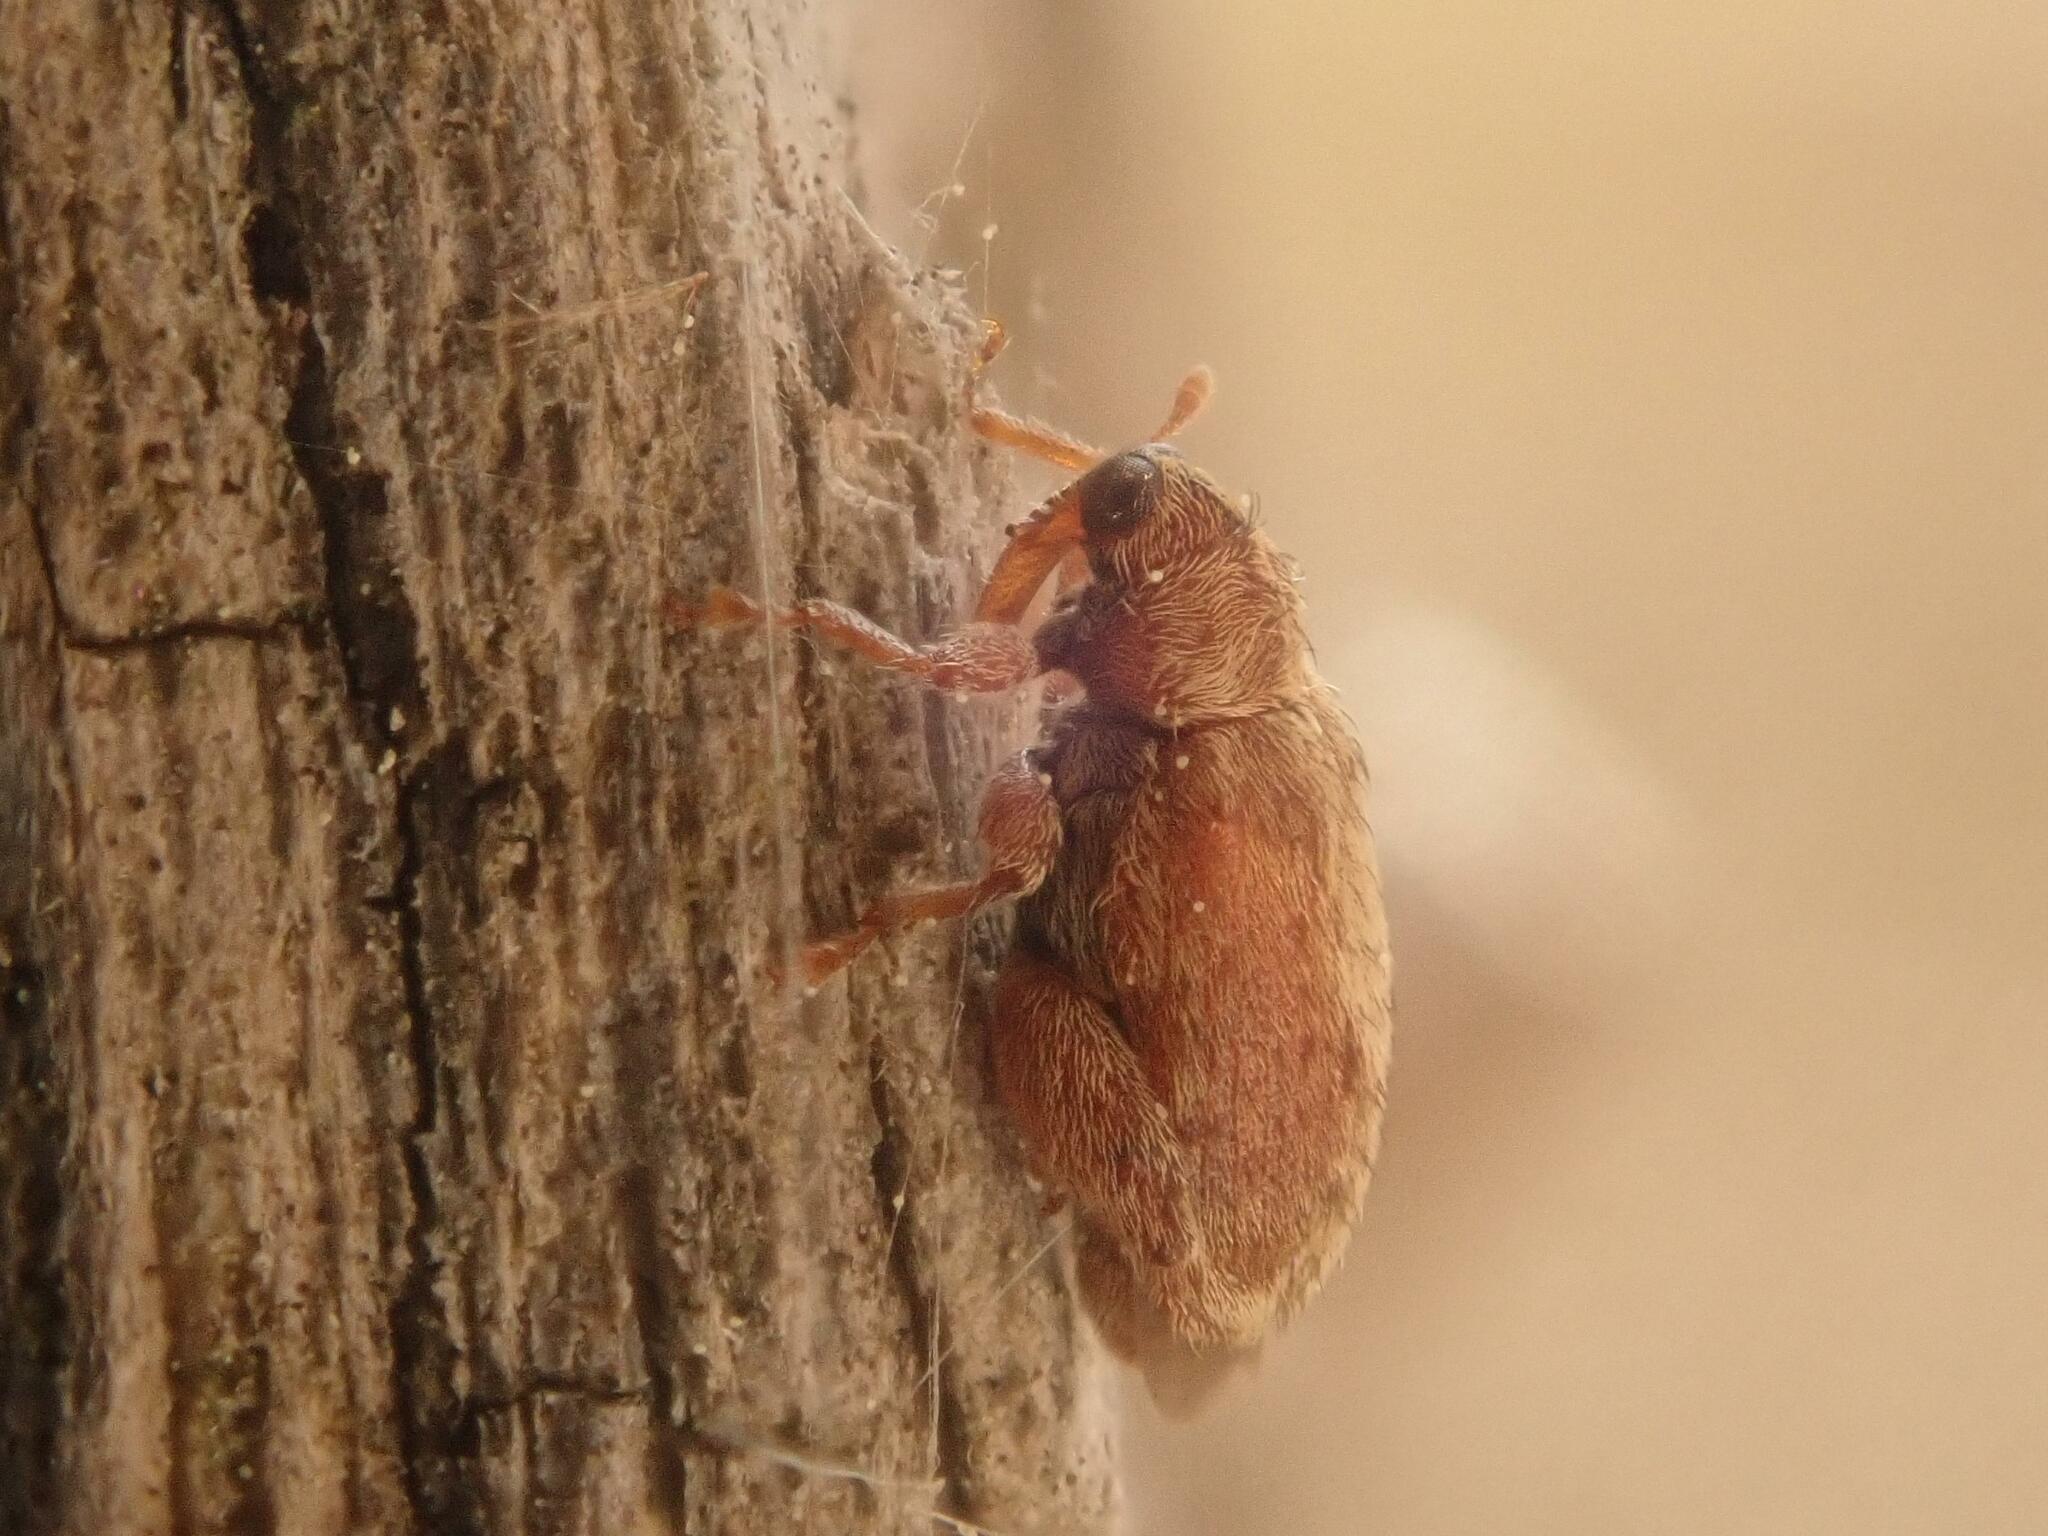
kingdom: Animalia
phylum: Arthropoda
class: Insecta
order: Coleoptera
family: Curculionidae
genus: Orchestes
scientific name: Orchestes quercus
